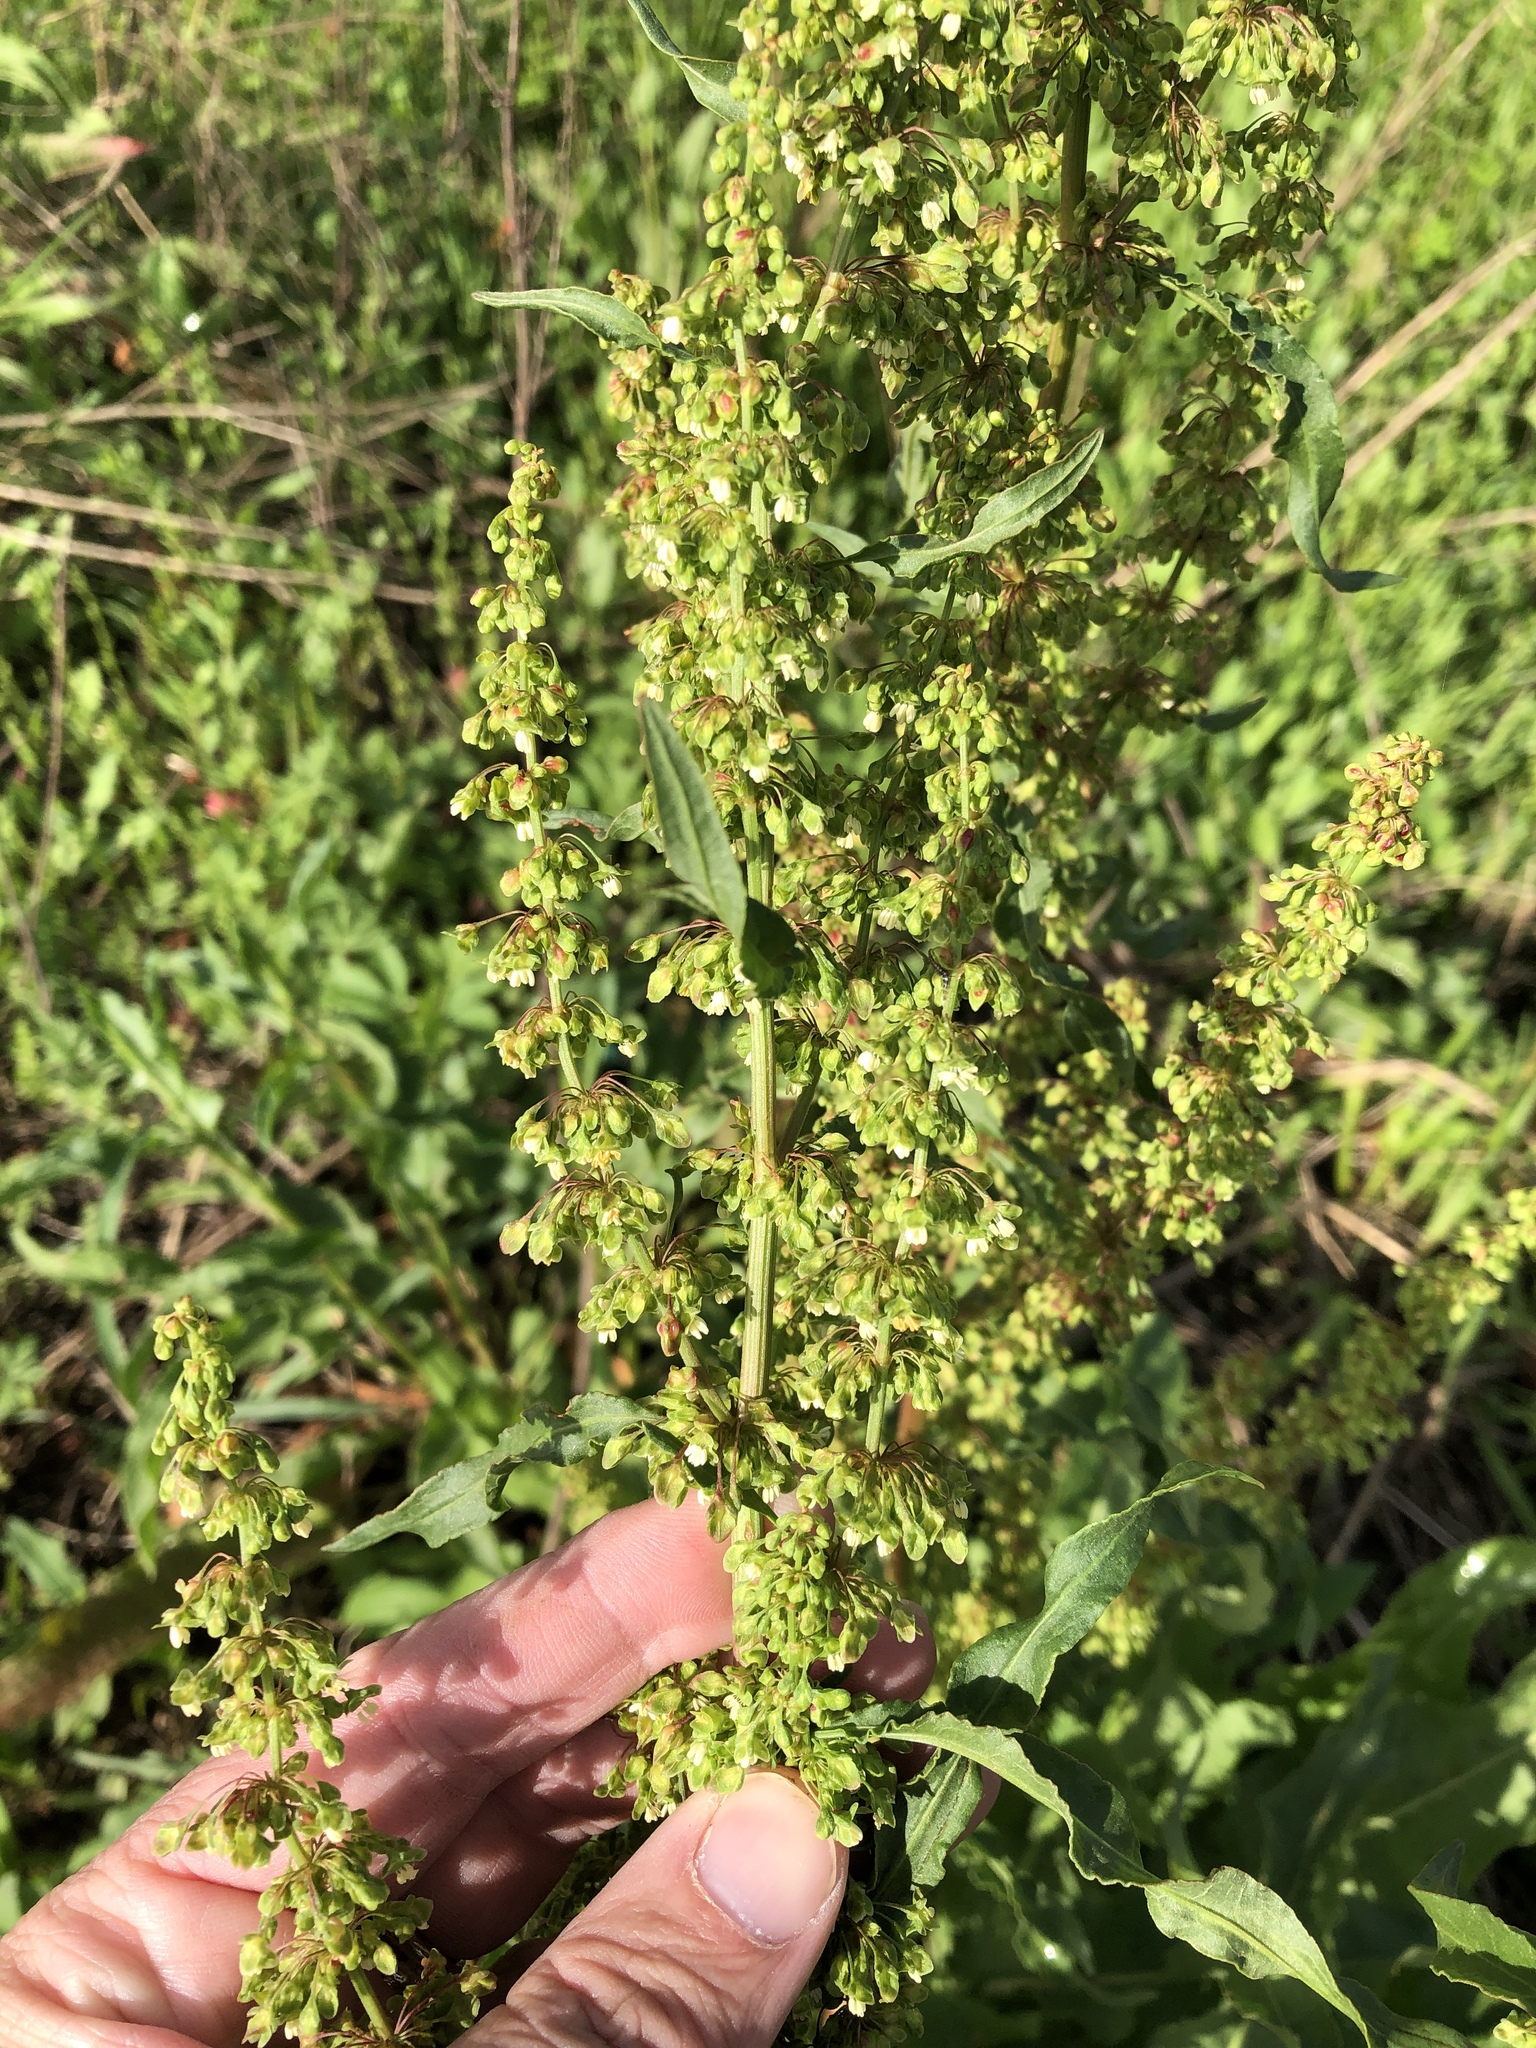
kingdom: Plantae
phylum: Tracheophyta
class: Magnoliopsida
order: Caryophyllales
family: Polygonaceae
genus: Rumex
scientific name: Rumex crispus
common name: Curled dock
